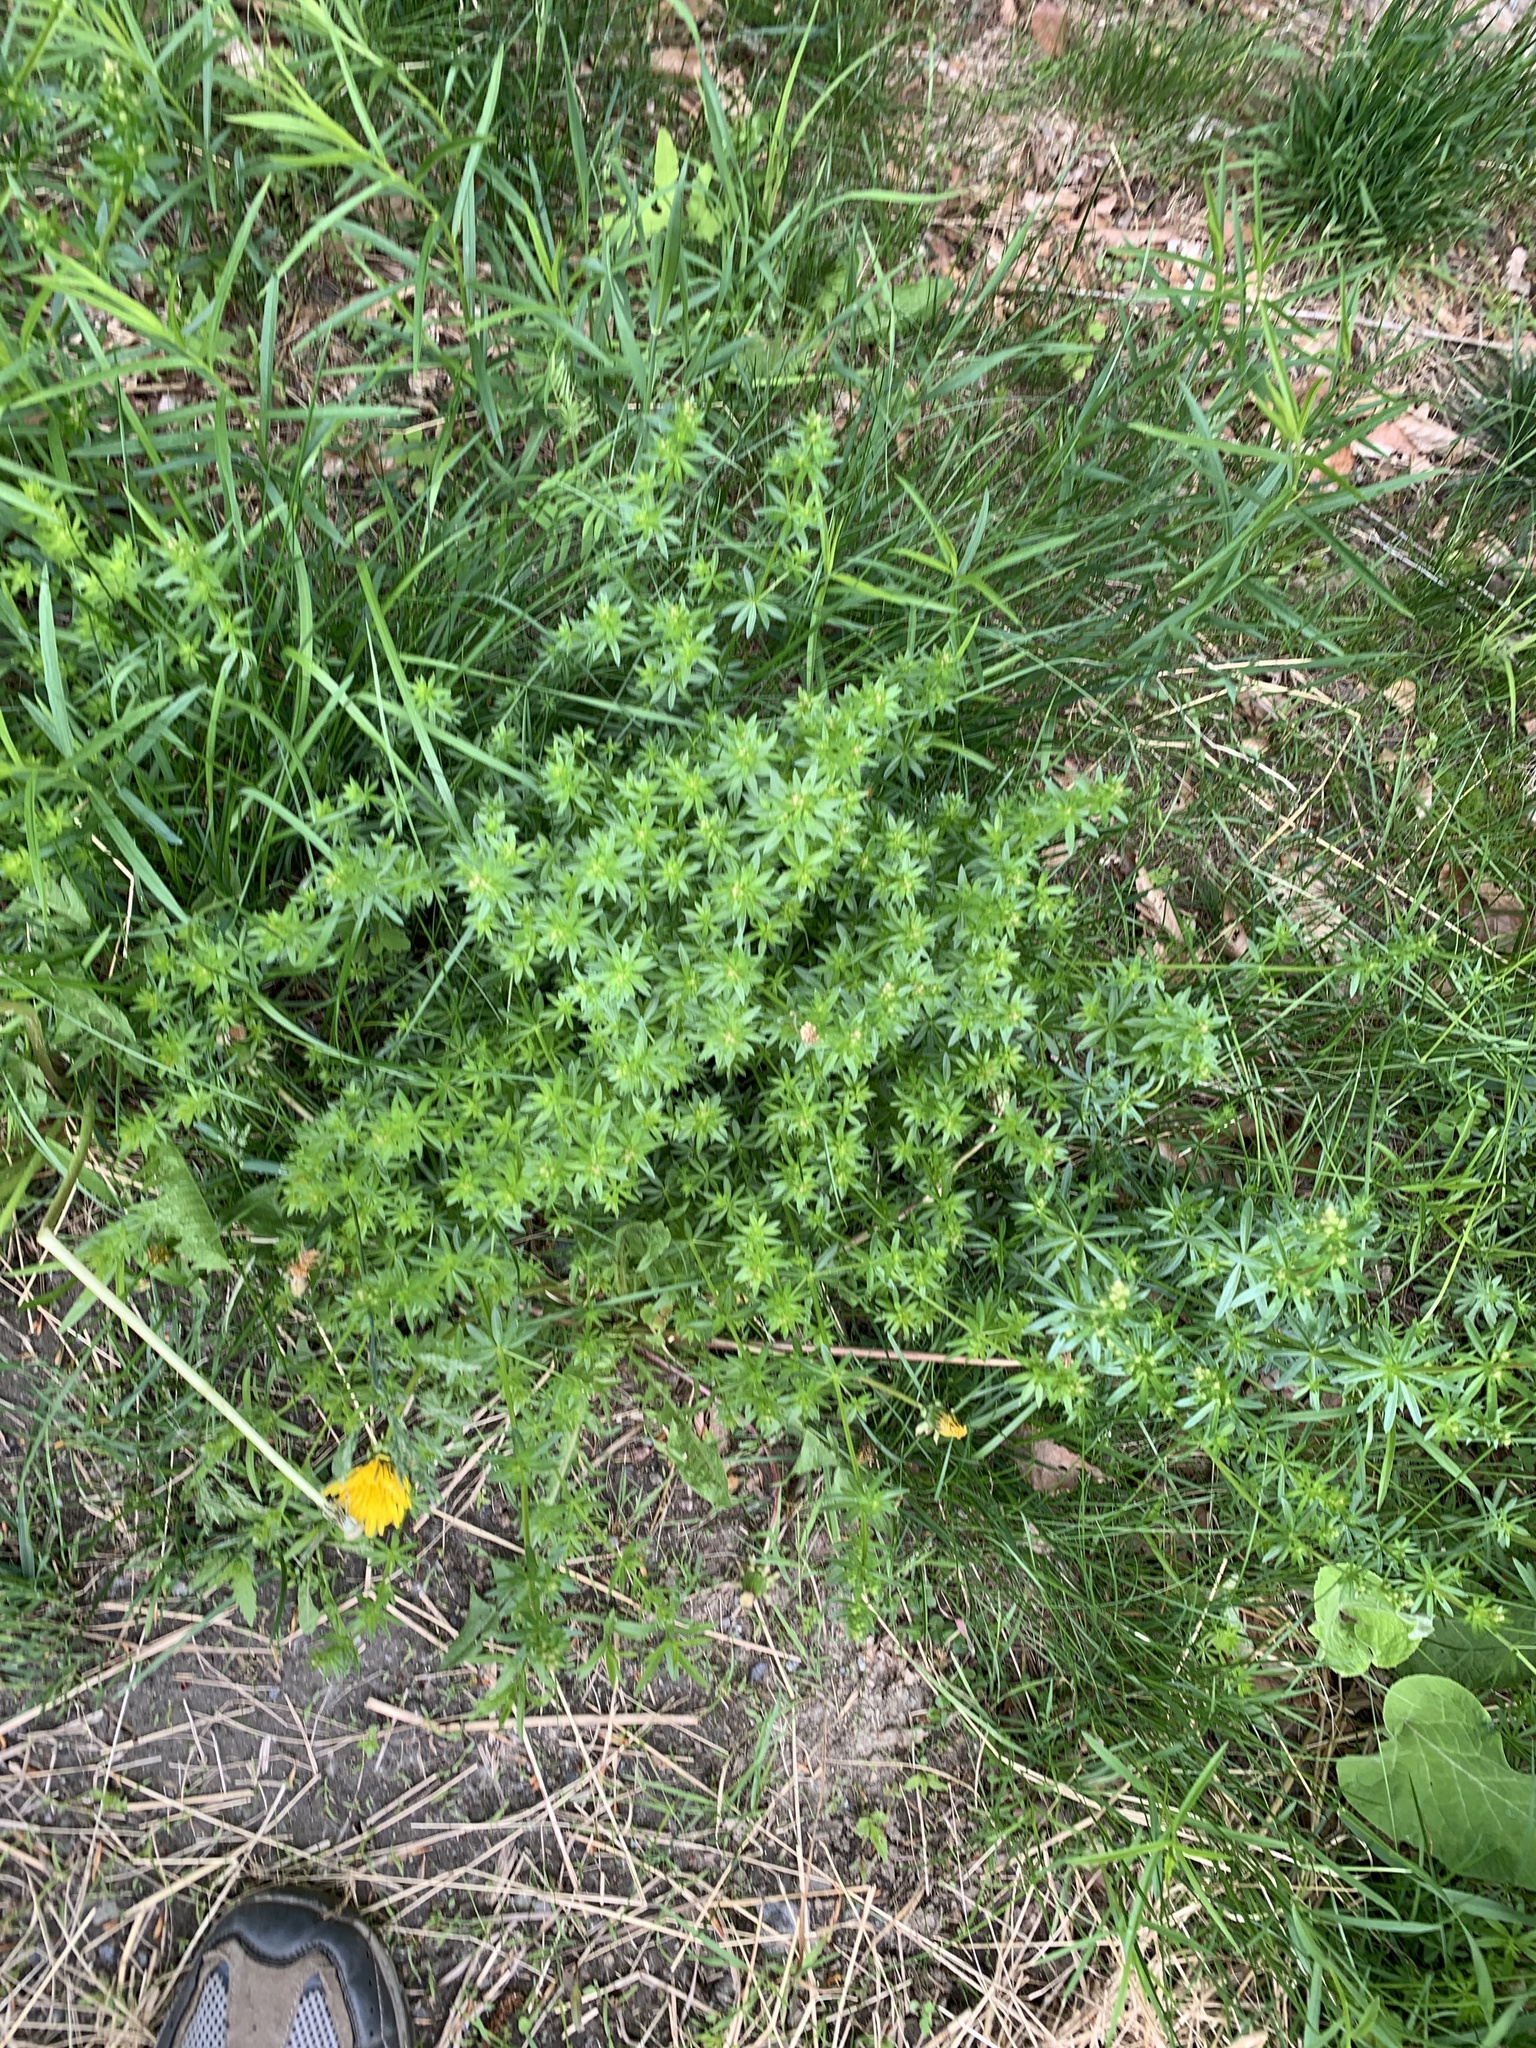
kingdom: Plantae
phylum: Tracheophyta
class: Magnoliopsida
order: Gentianales
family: Rubiaceae
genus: Galium
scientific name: Galium mollugo
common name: Hedge bedstraw
